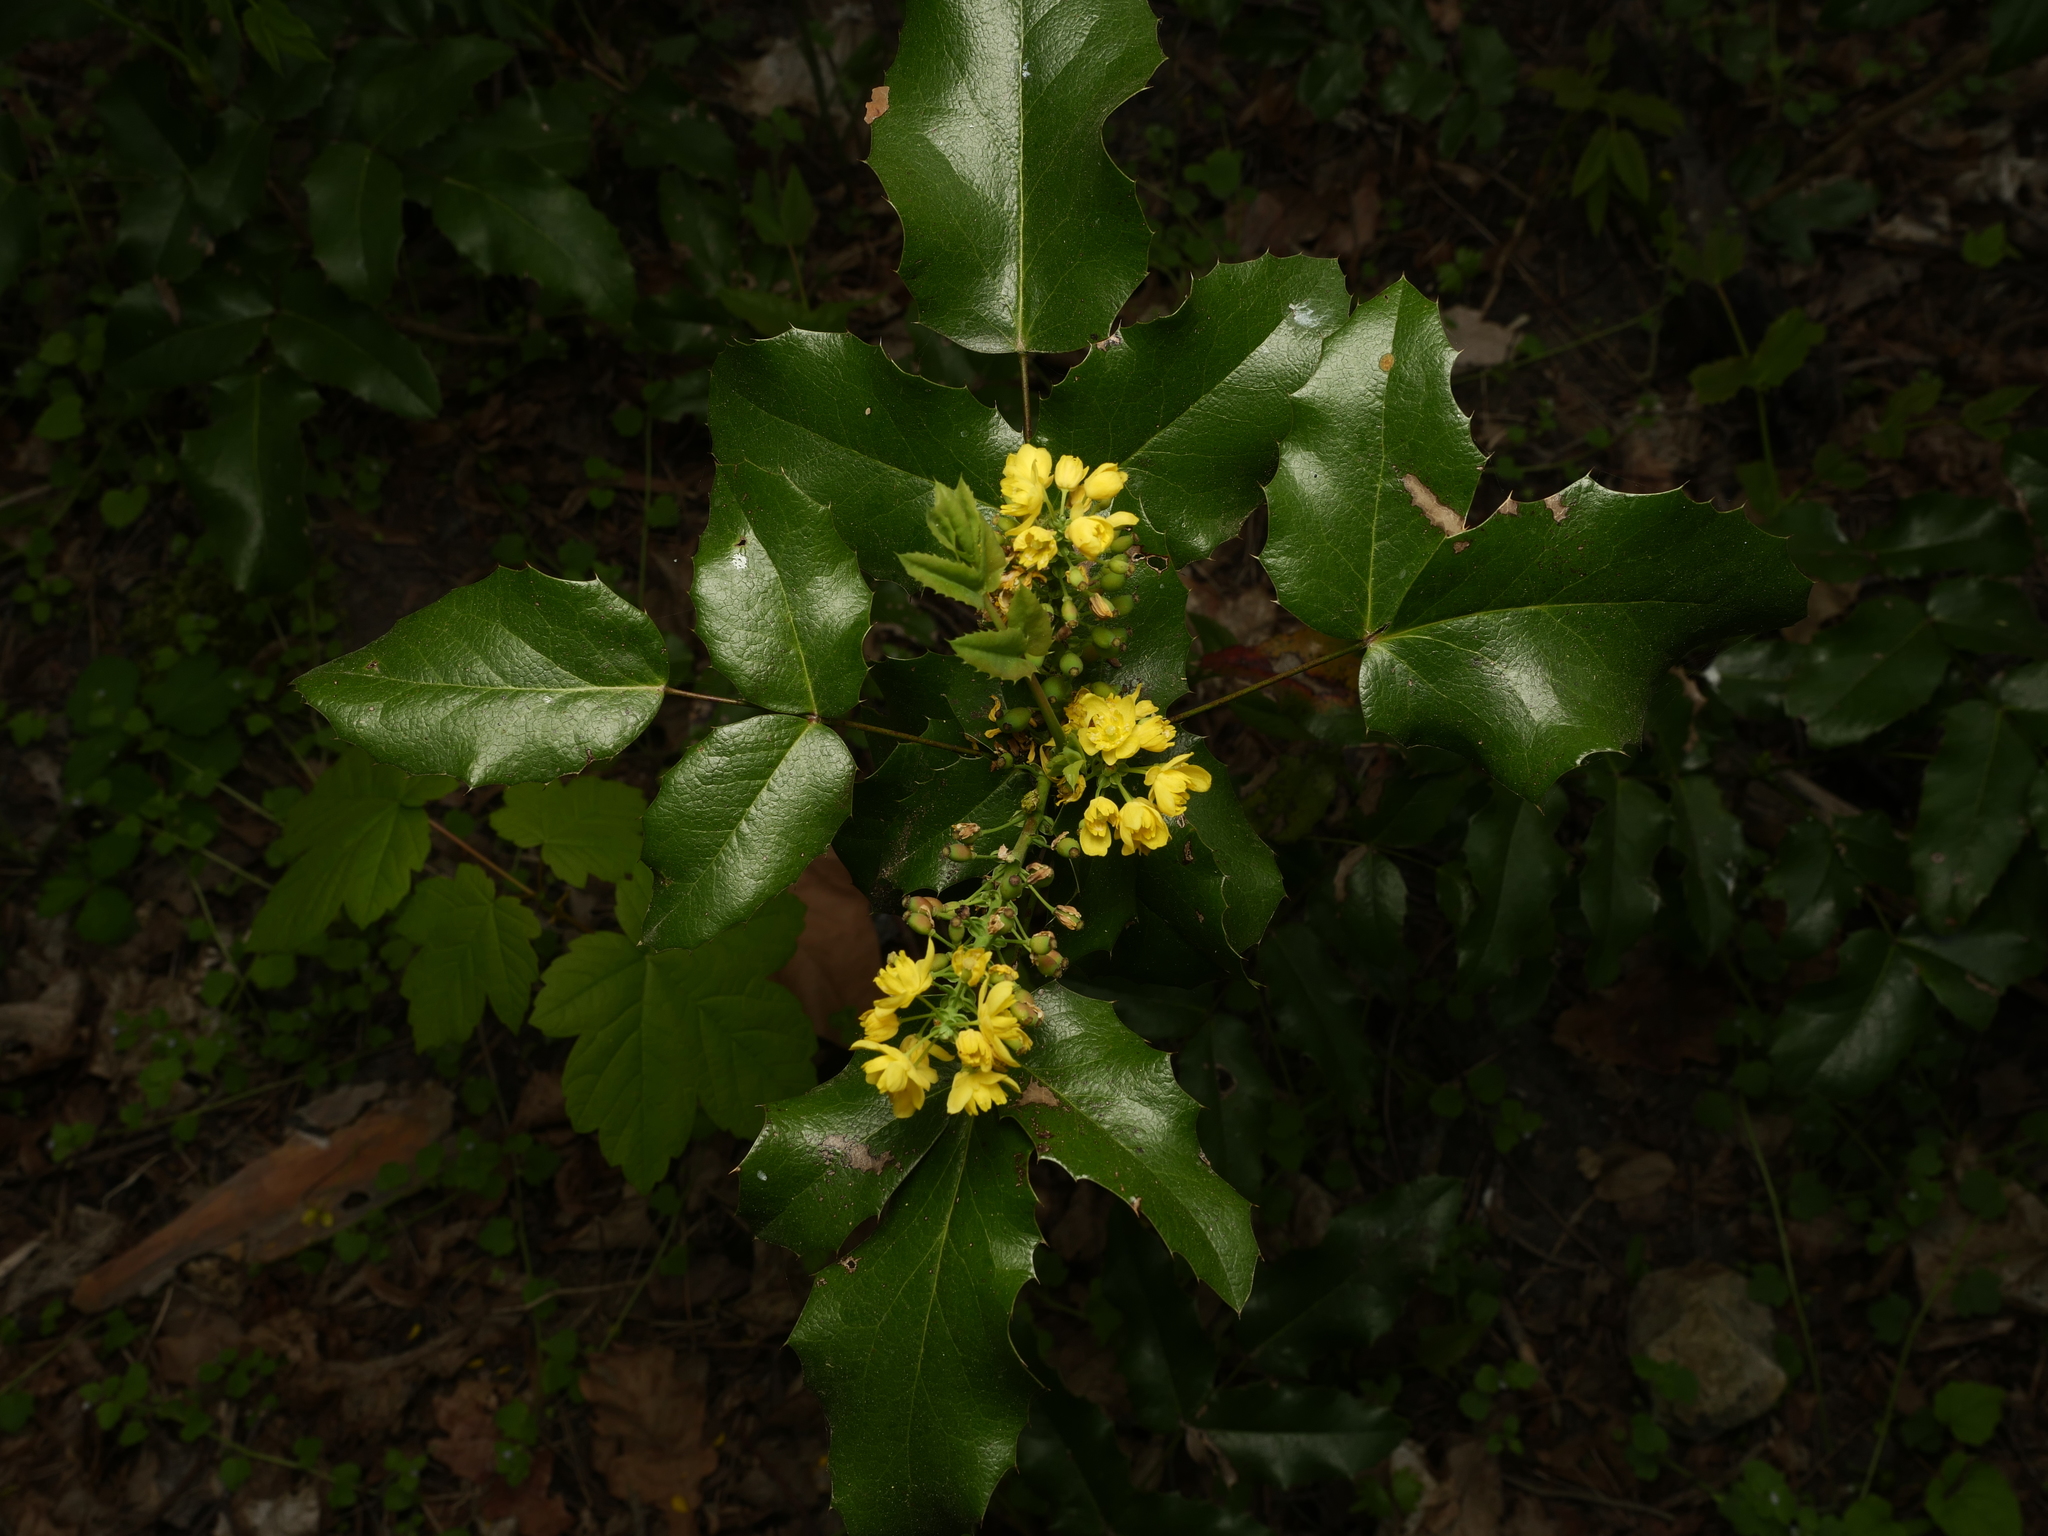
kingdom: Plantae
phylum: Tracheophyta
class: Magnoliopsida
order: Ranunculales
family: Berberidaceae
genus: Mahonia
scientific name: Mahonia aquifolium
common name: Oregon-grape
